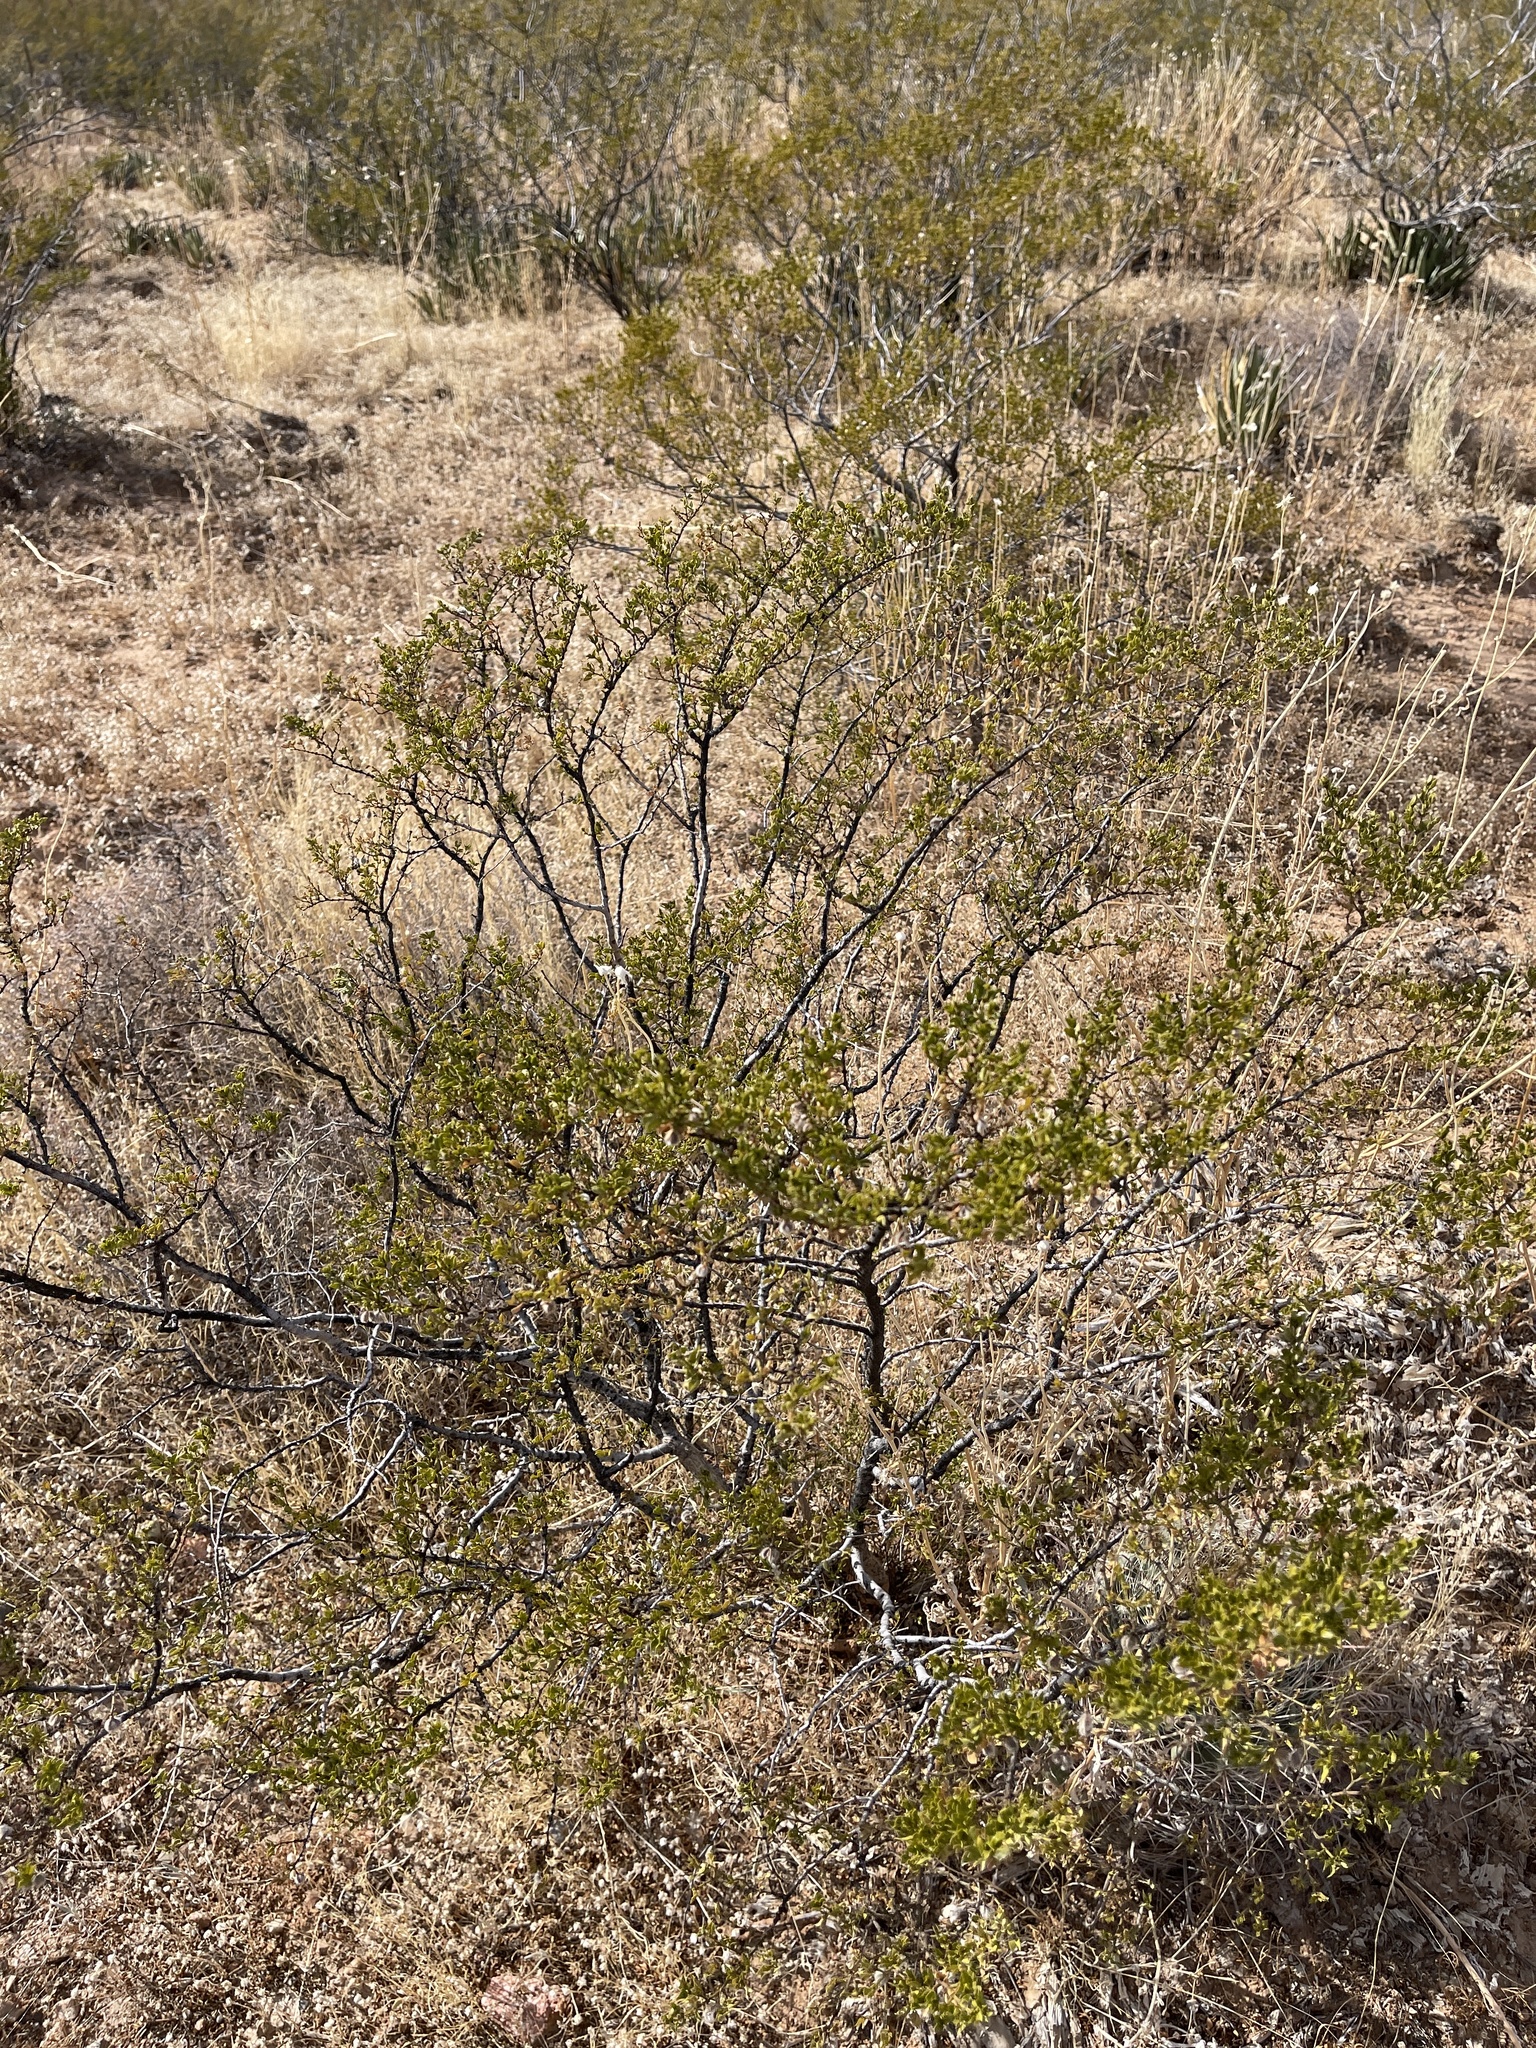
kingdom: Plantae
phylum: Tracheophyta
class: Magnoliopsida
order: Zygophyllales
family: Zygophyllaceae
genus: Larrea
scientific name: Larrea tridentata
